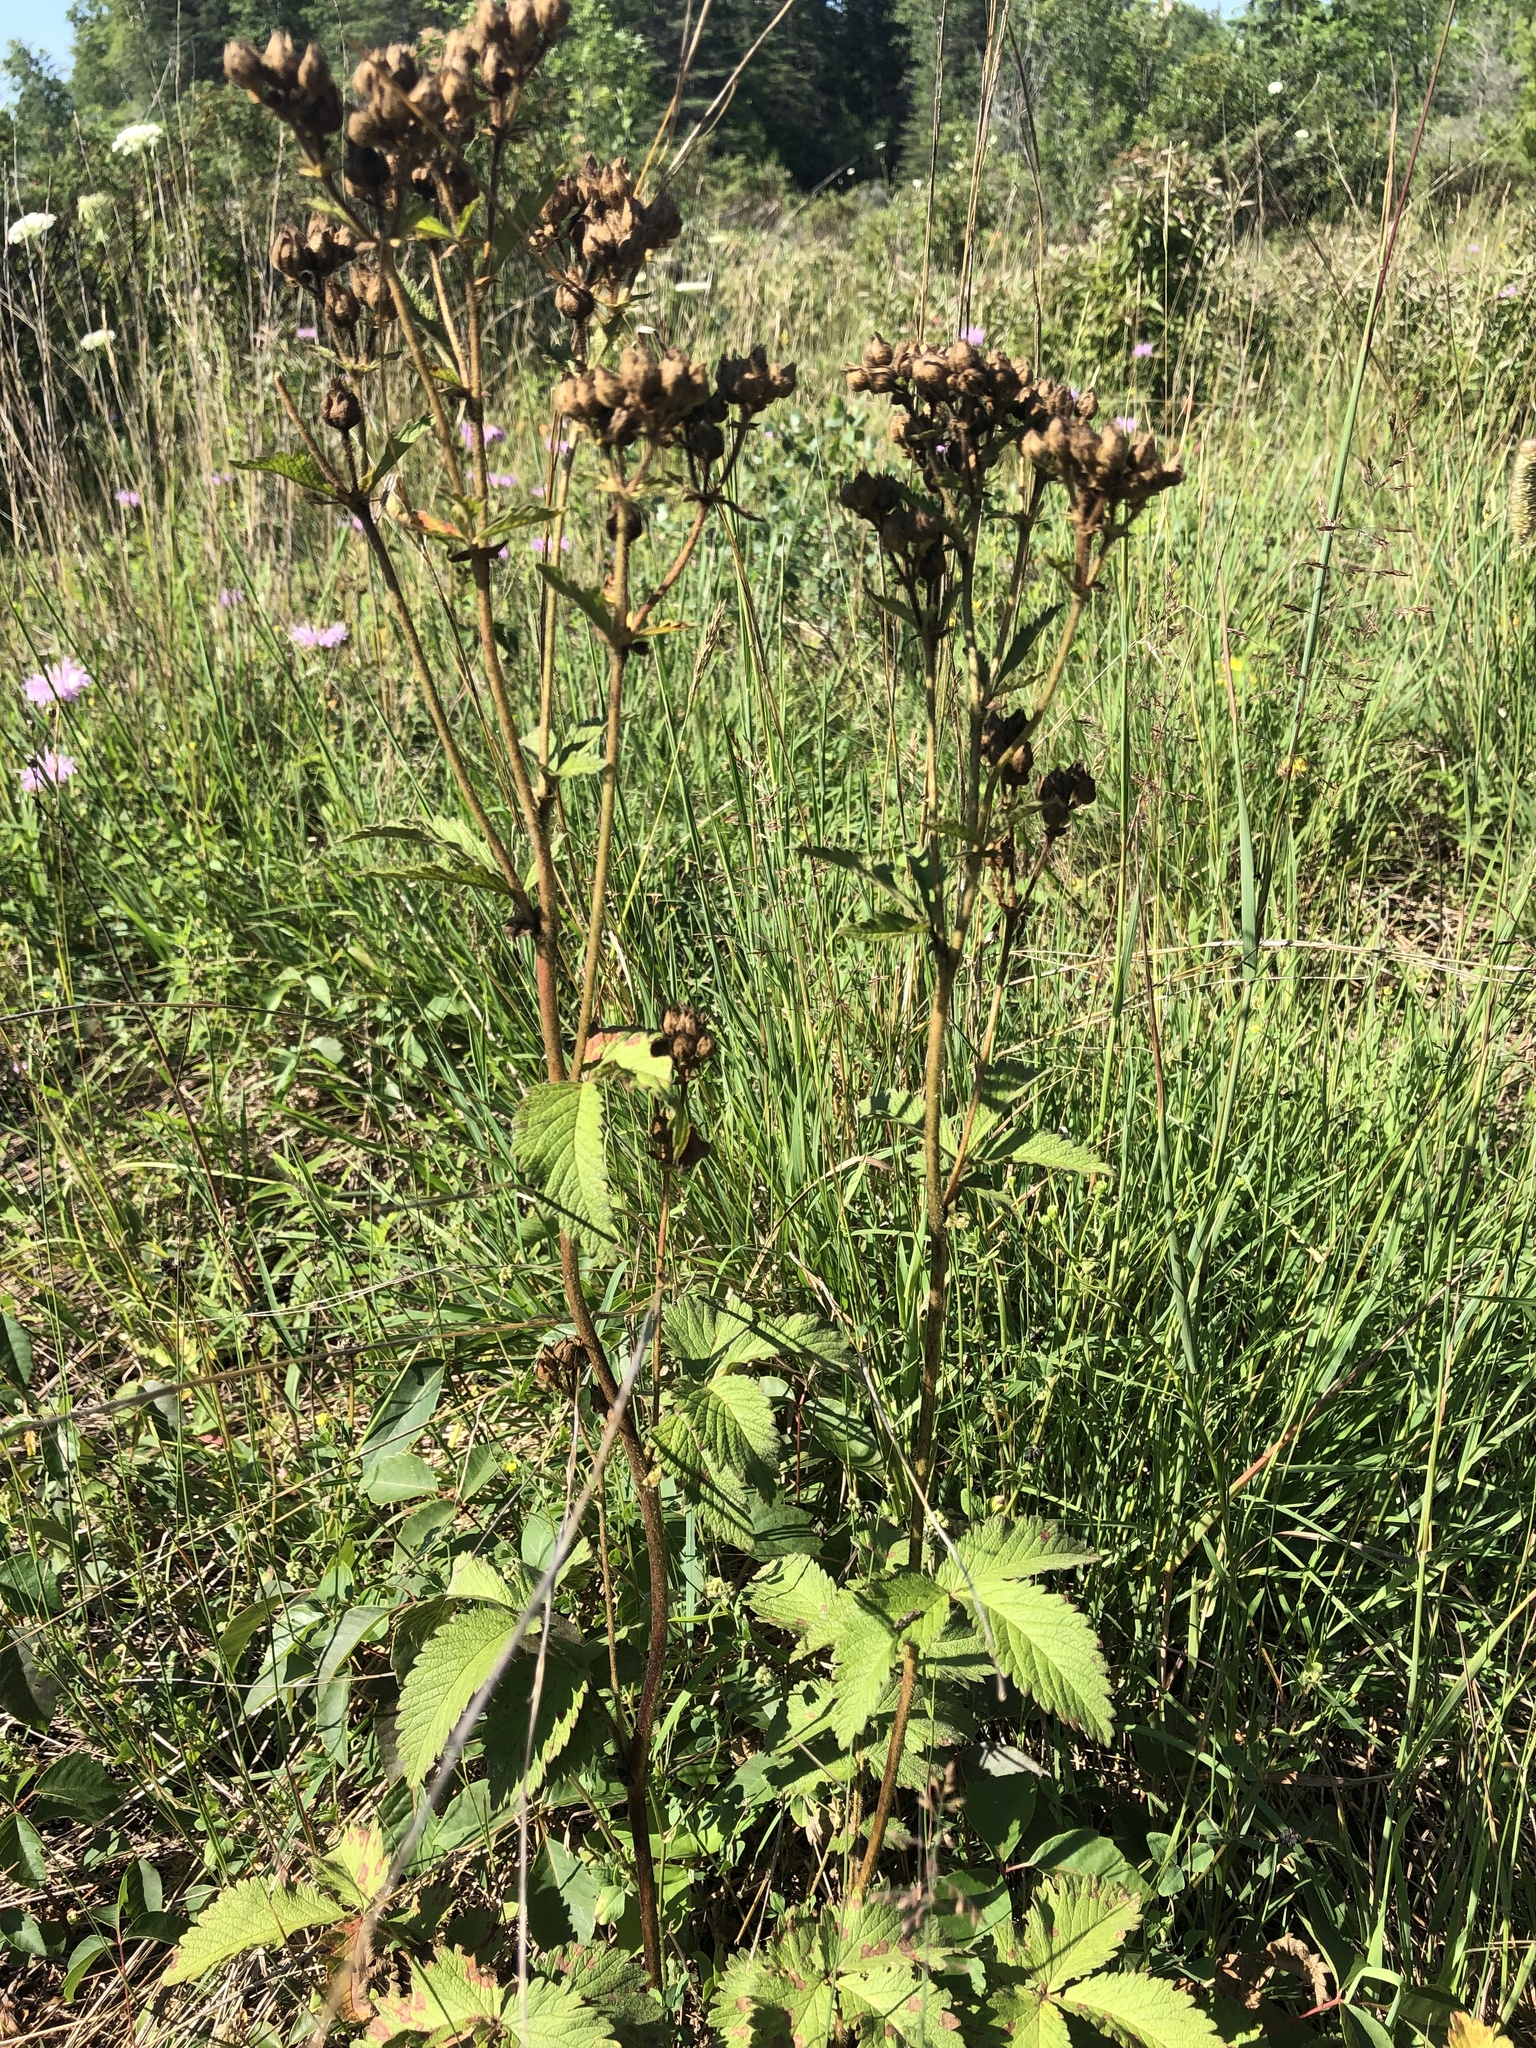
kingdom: Plantae
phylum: Tracheophyta
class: Magnoliopsida
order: Rosales
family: Rosaceae
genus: Drymocallis
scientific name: Drymocallis arguta
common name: Tall cinquefoil
